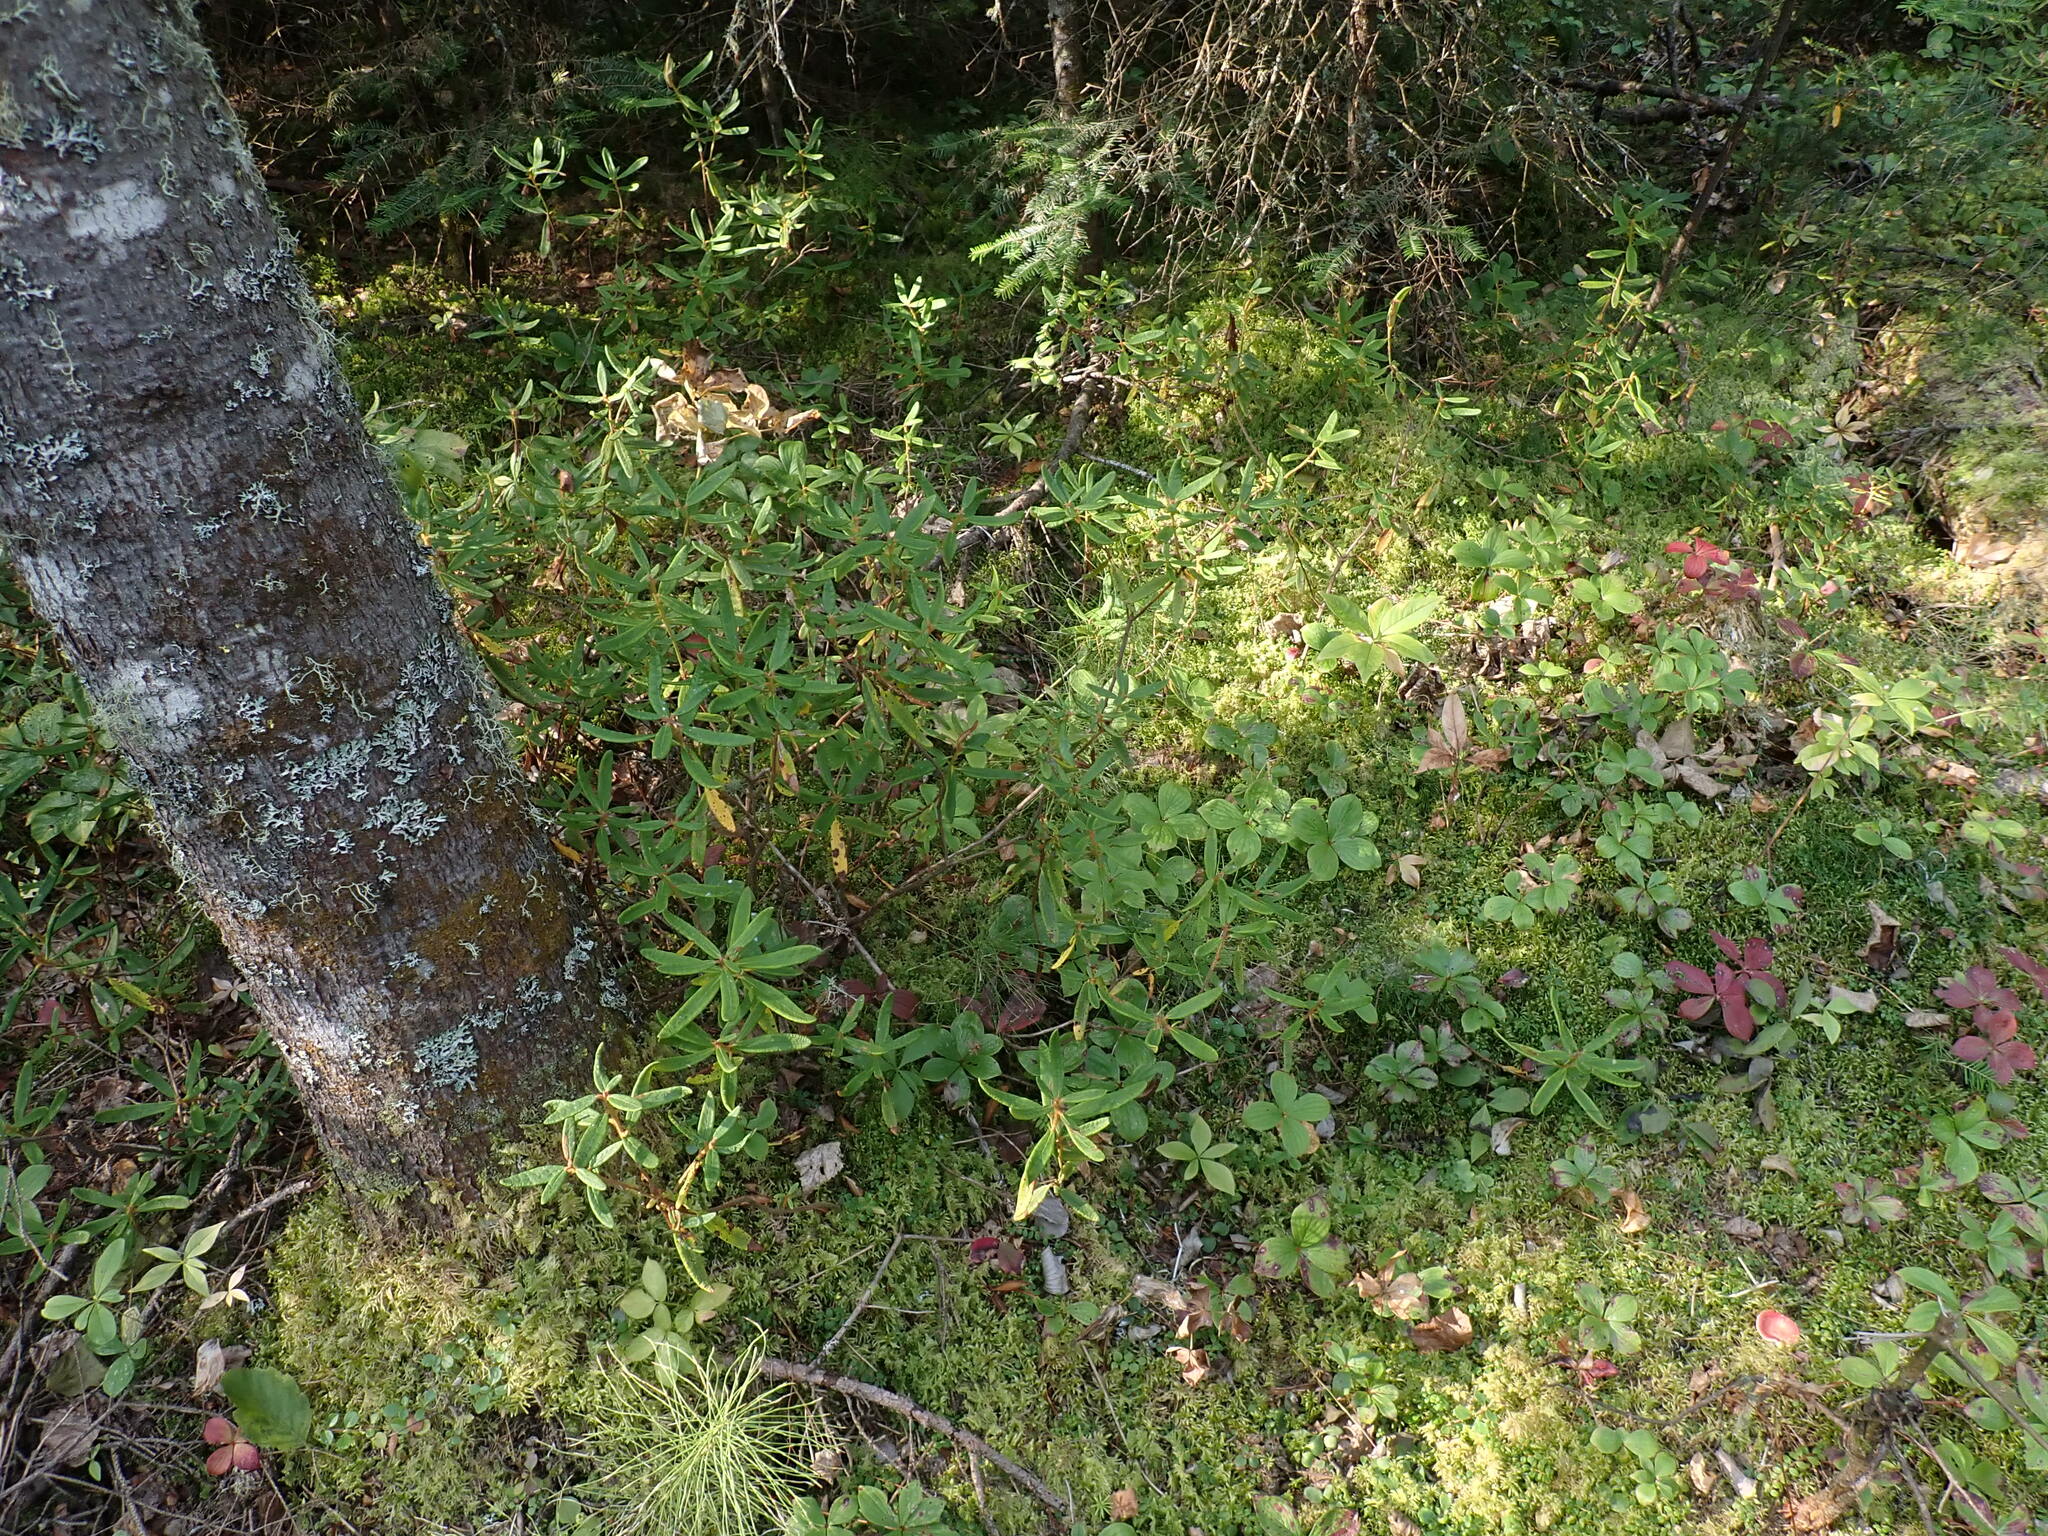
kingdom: Plantae
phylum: Tracheophyta
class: Magnoliopsida
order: Ericales
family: Ericaceae
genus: Rhododendron
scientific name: Rhododendron groenlandicum
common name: Bog labrador tea
